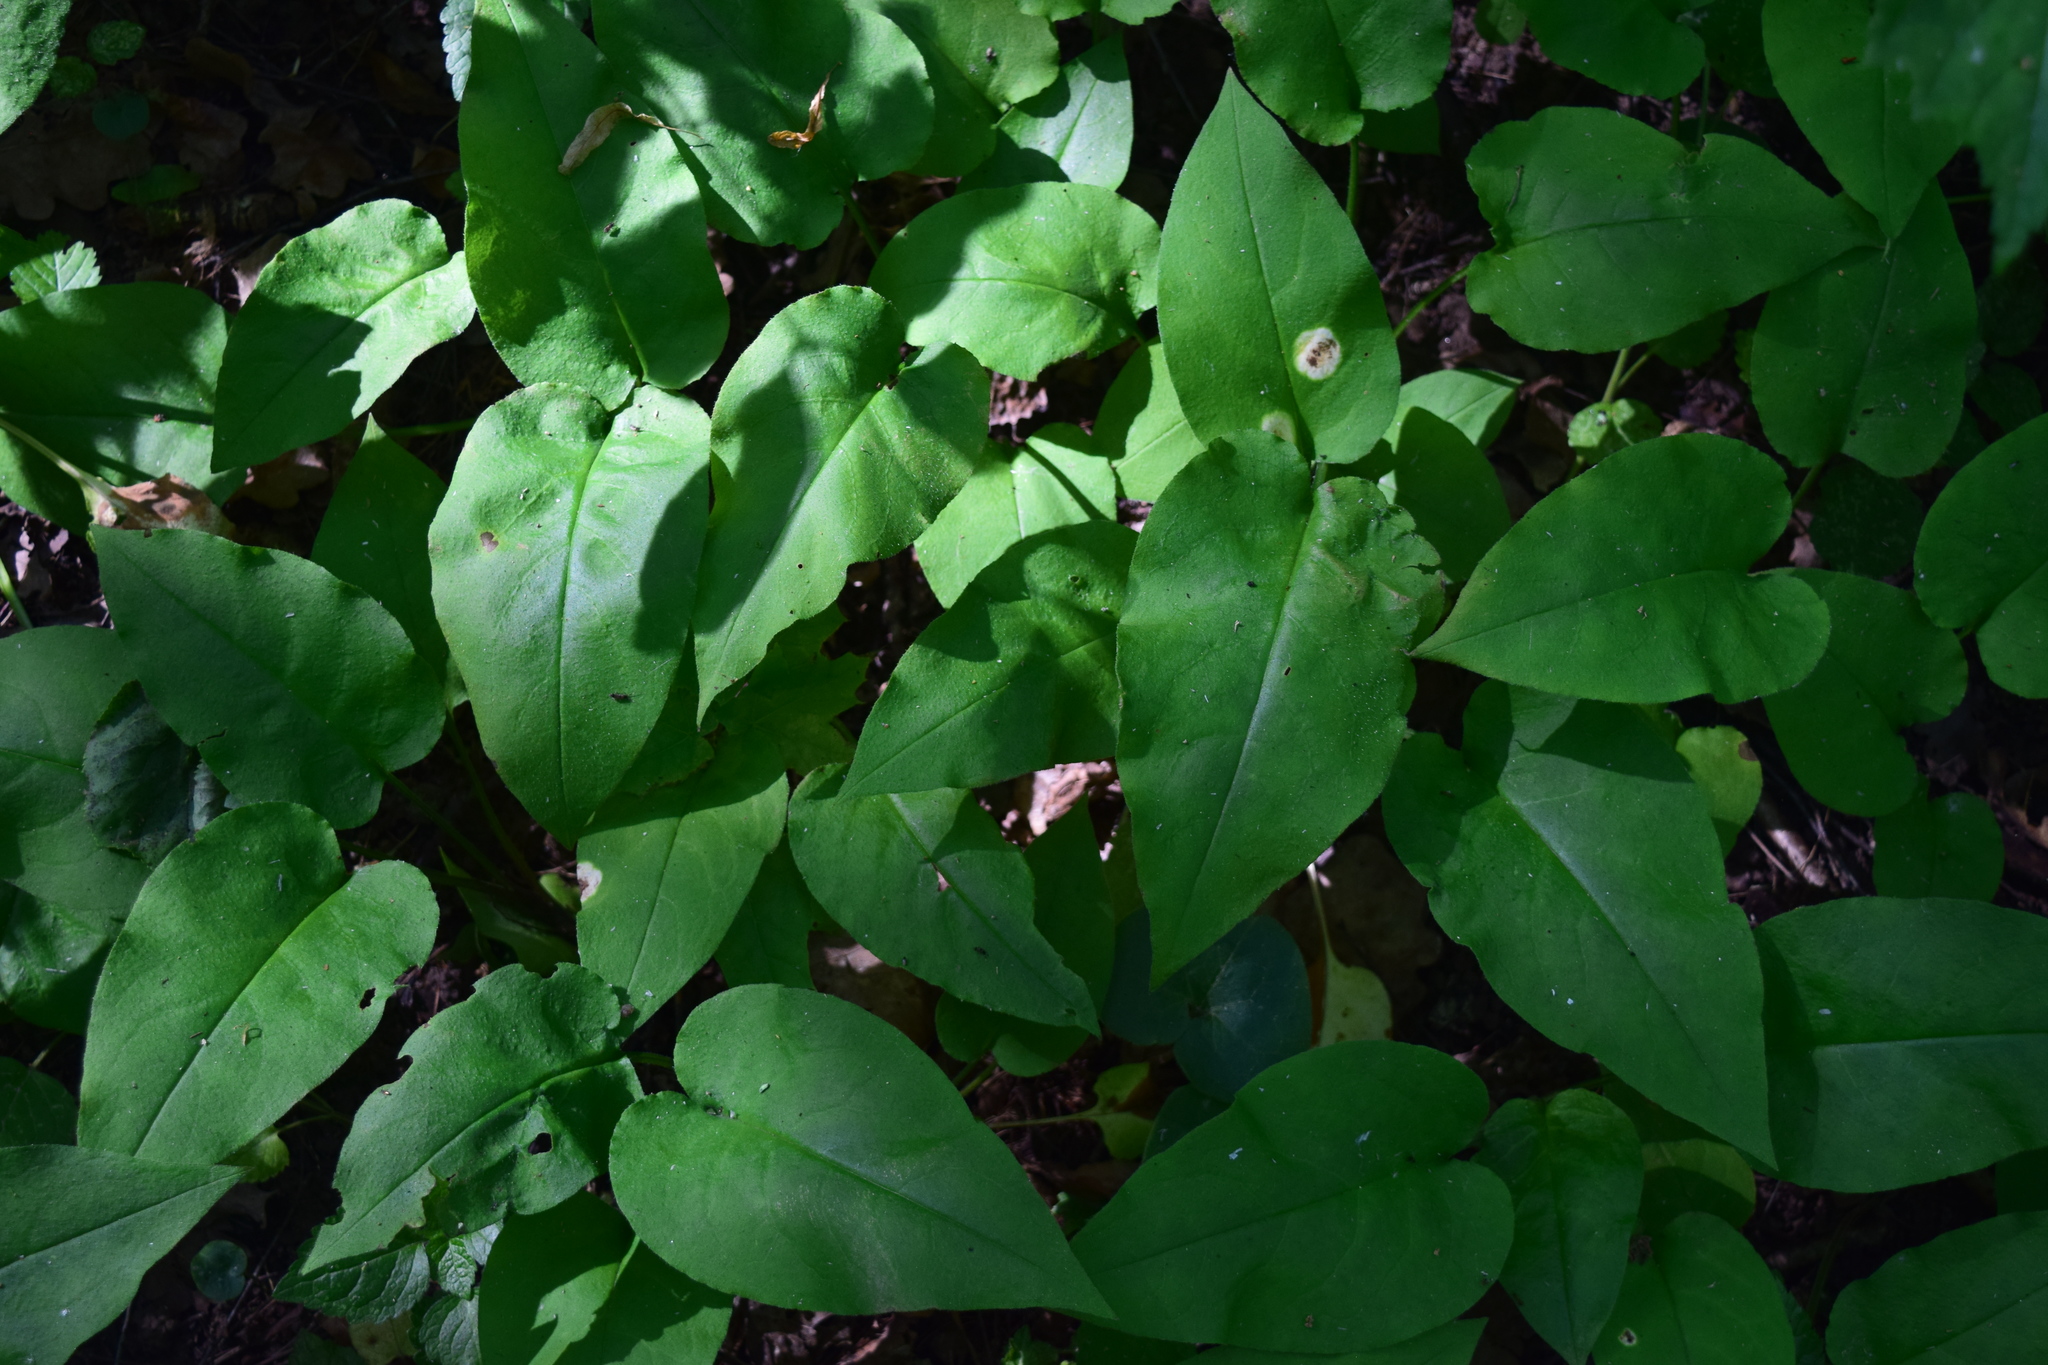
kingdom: Plantae
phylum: Tracheophyta
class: Magnoliopsida
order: Boraginales
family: Boraginaceae
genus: Pulmonaria
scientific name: Pulmonaria obscura
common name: Suffolk lungwort
